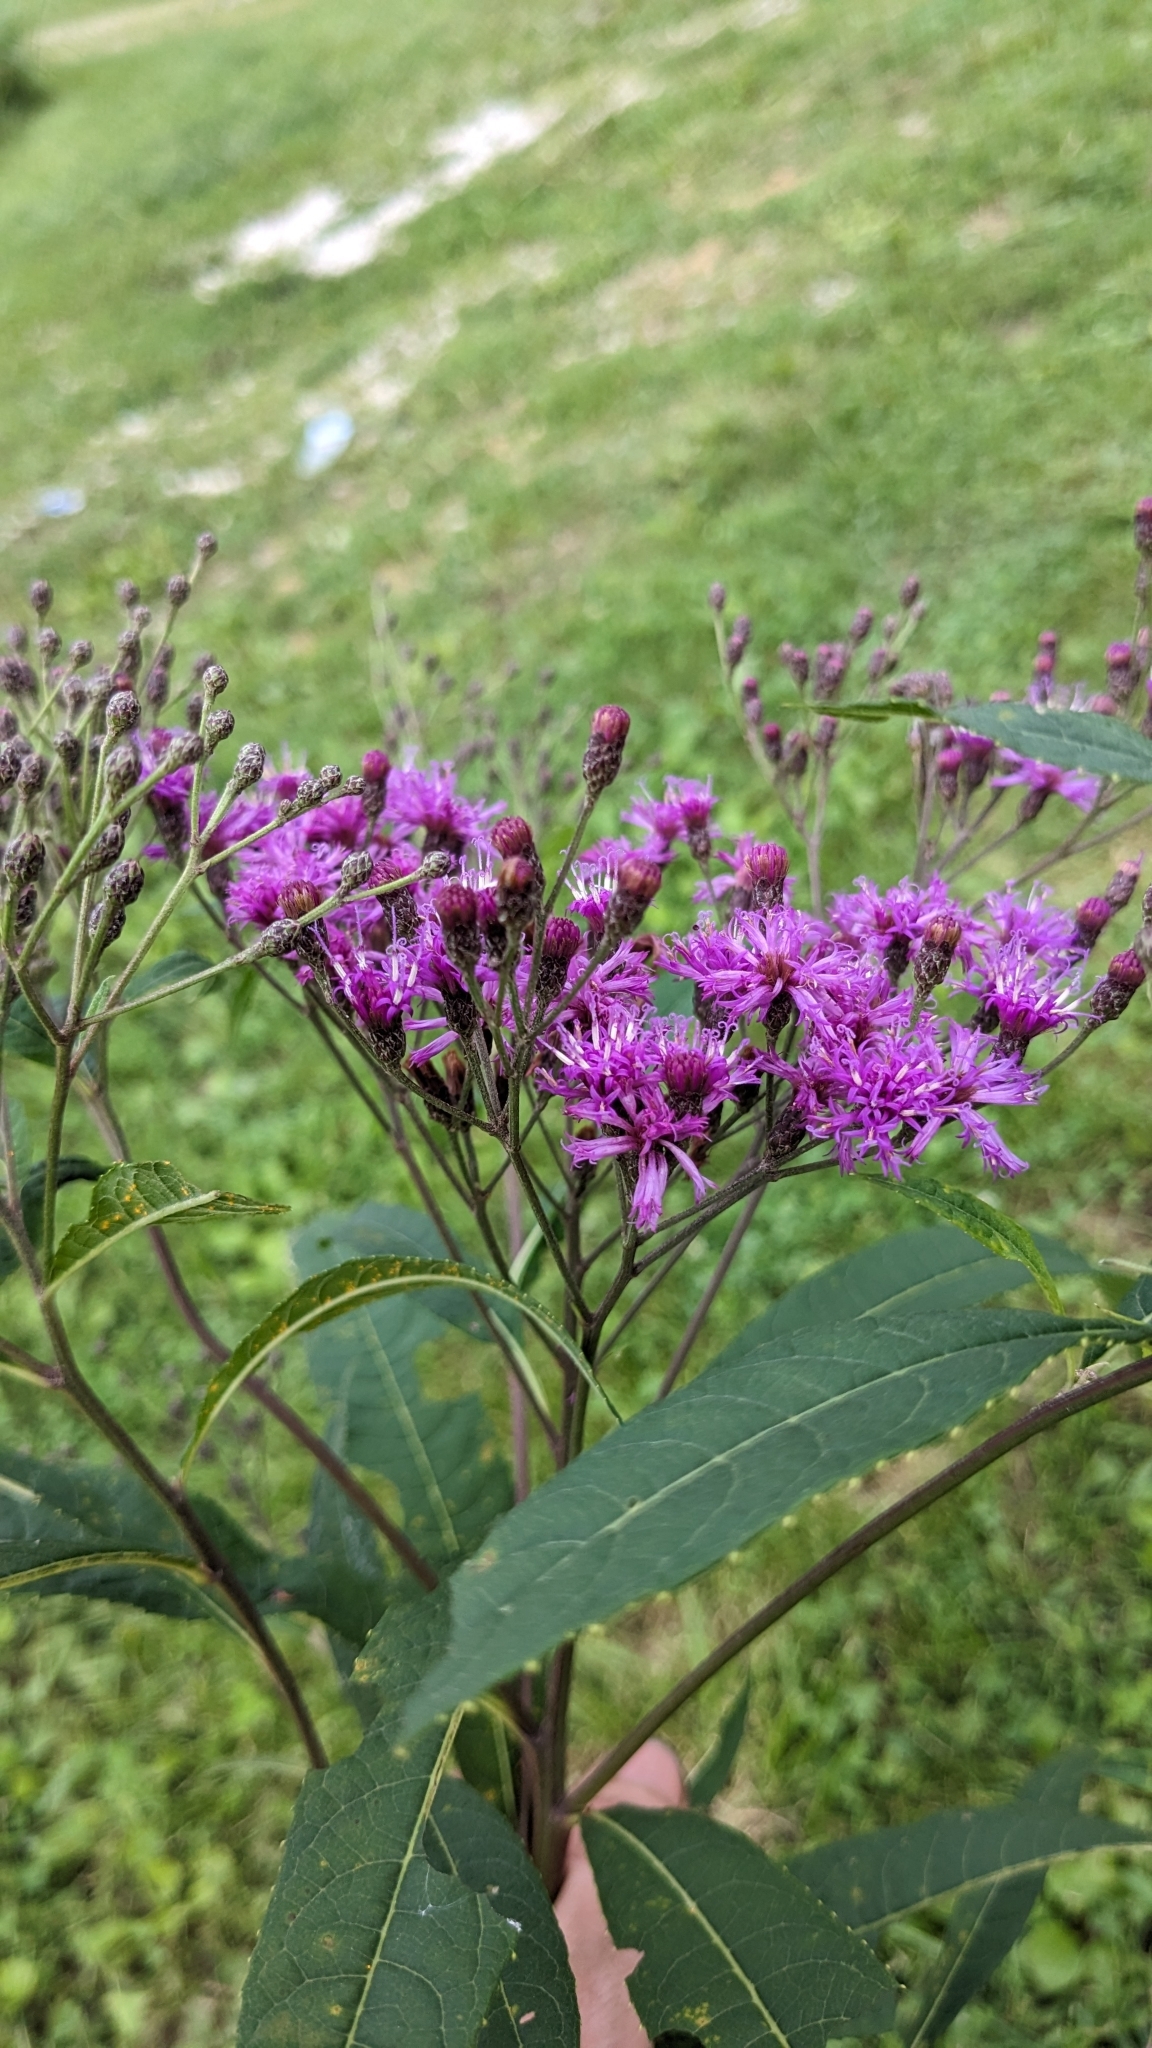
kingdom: Plantae
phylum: Tracheophyta
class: Magnoliopsida
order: Asterales
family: Asteraceae
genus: Vernonia
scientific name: Vernonia gigantea
